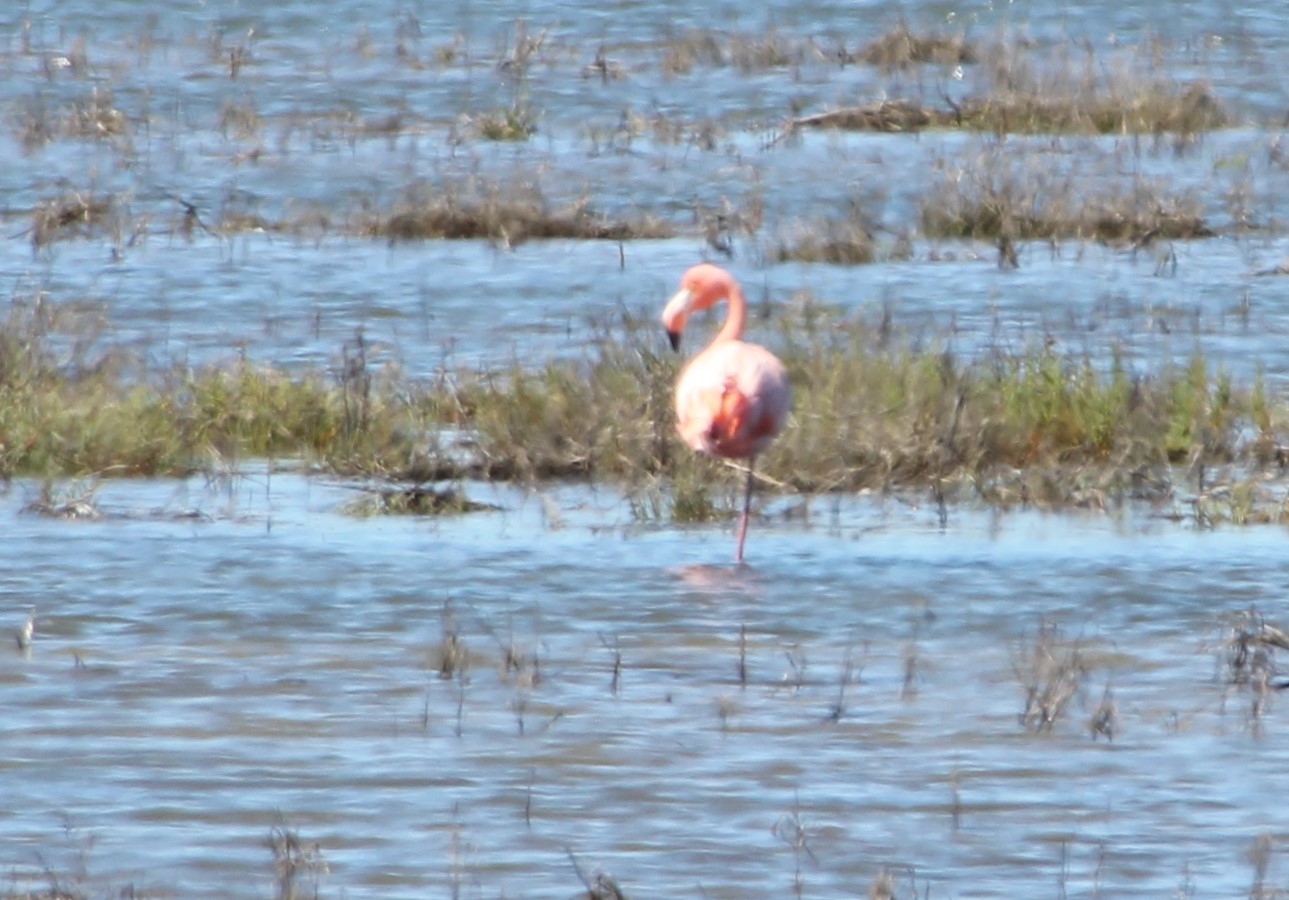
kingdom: Animalia
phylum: Chordata
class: Aves
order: Phoenicopteriformes
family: Phoenicopteridae
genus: Phoenicopterus
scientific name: Phoenicopterus ruber
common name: American flamingo
